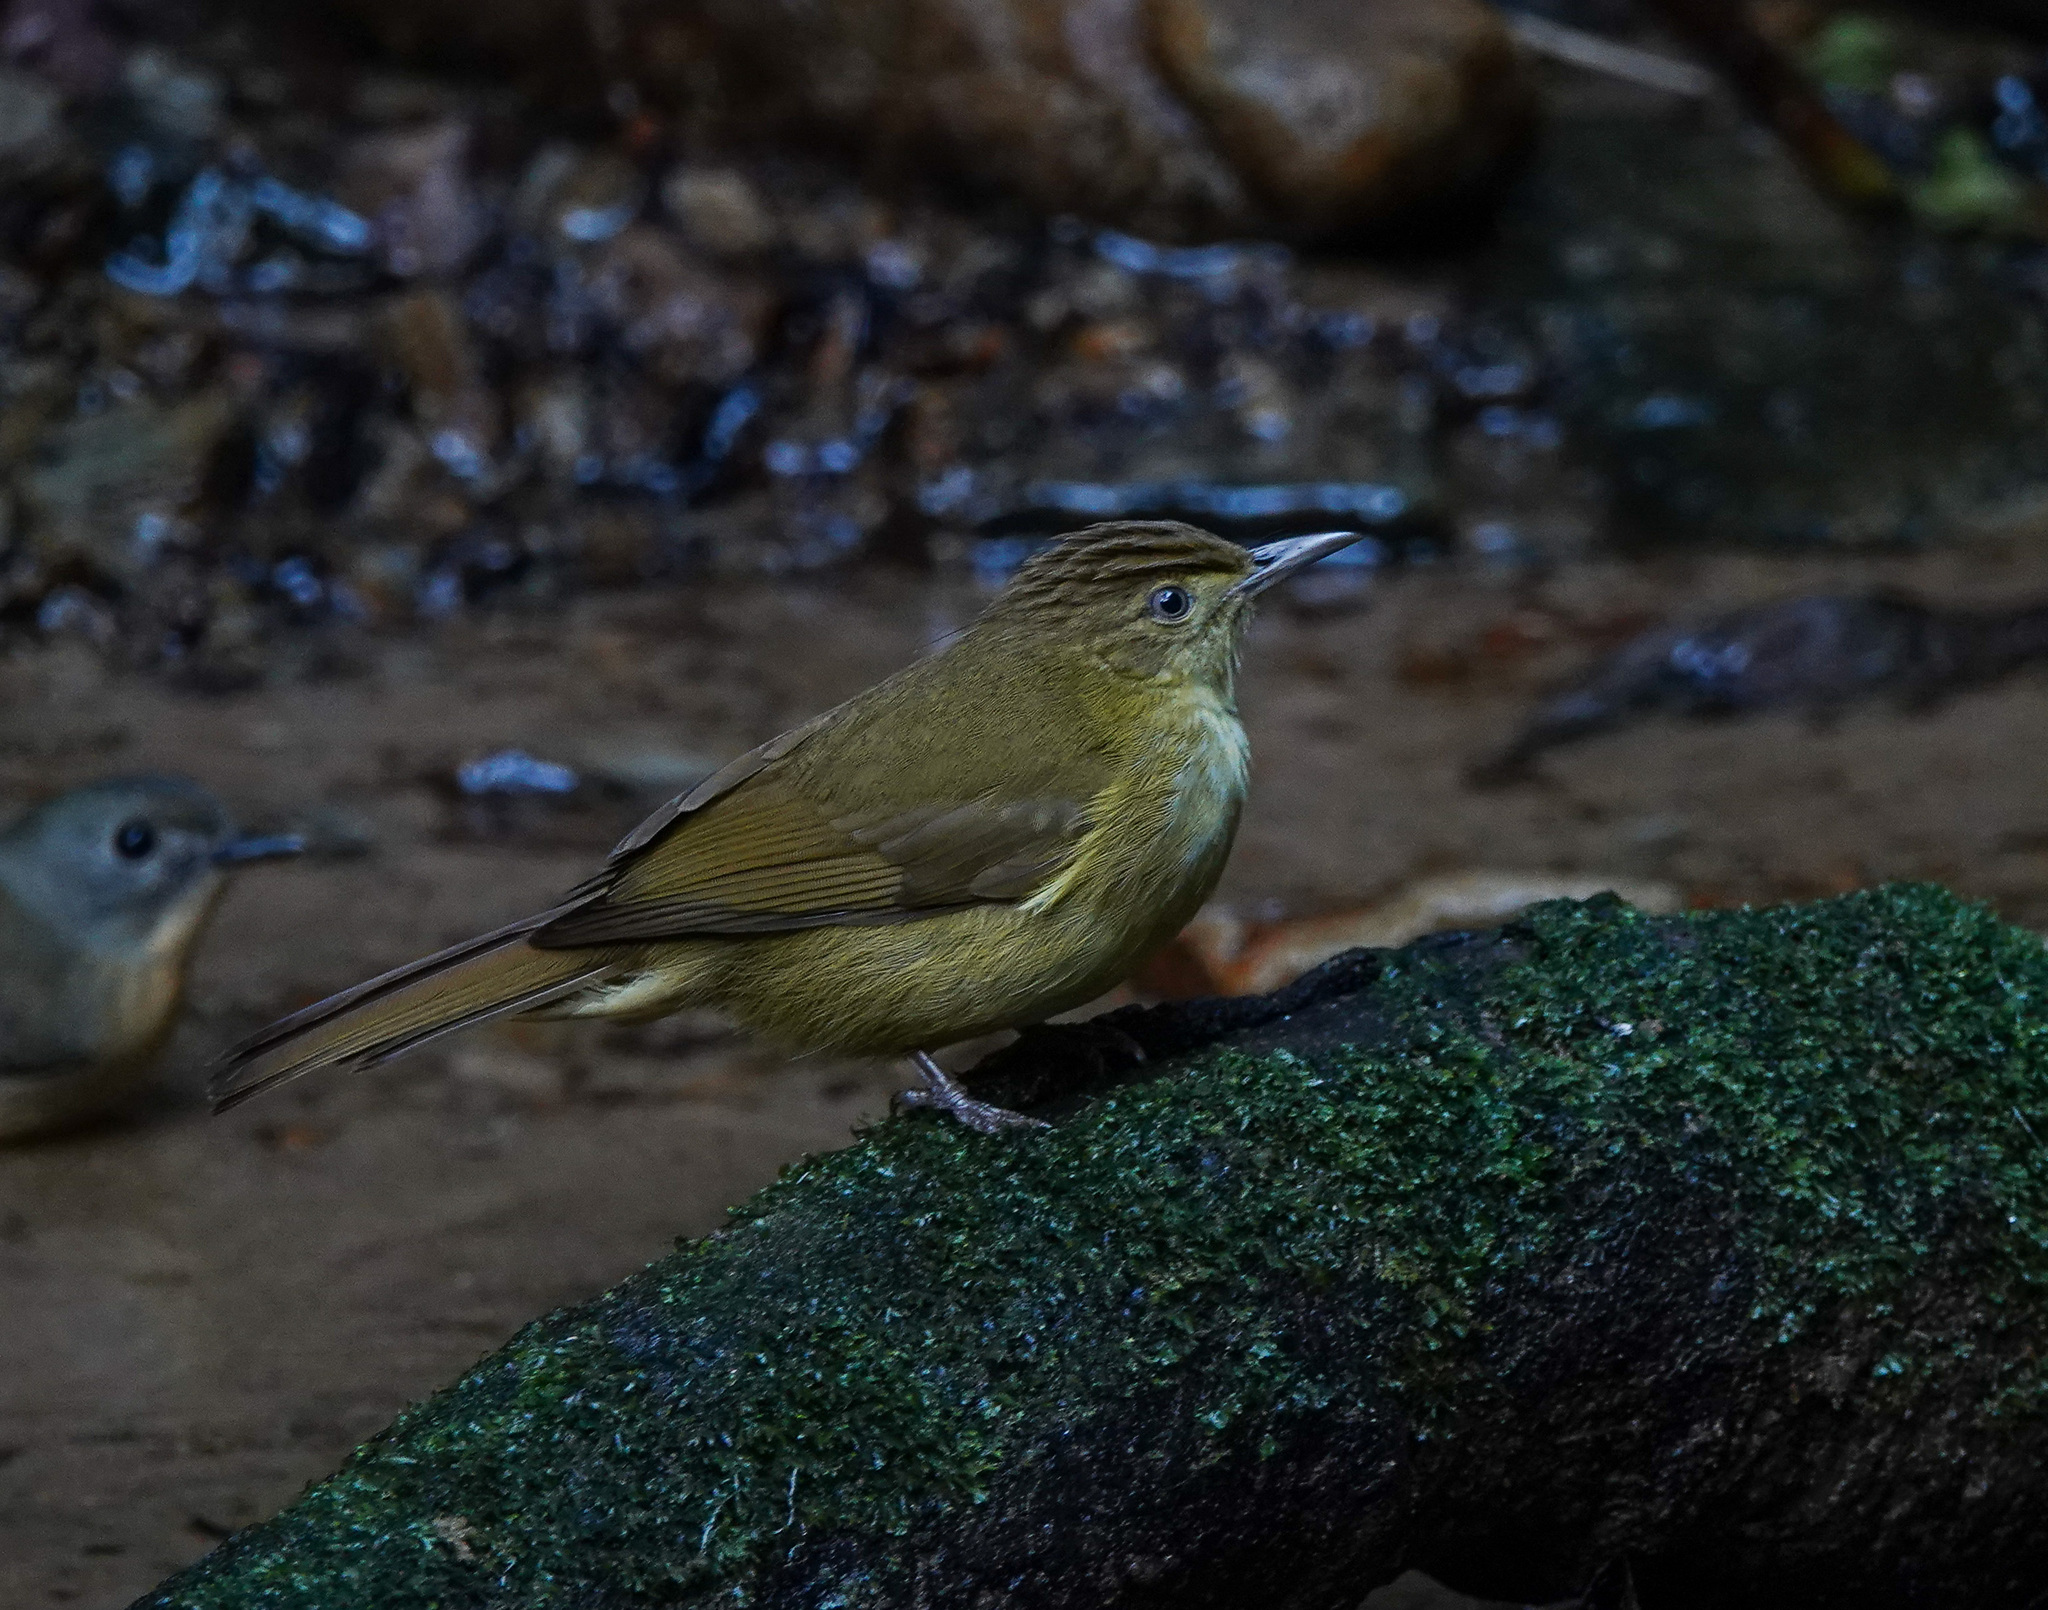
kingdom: Animalia
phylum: Chordata
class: Aves
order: Passeriformes
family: Pycnonotidae
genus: Iole
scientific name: Iole virescens
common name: Olive bulbul
